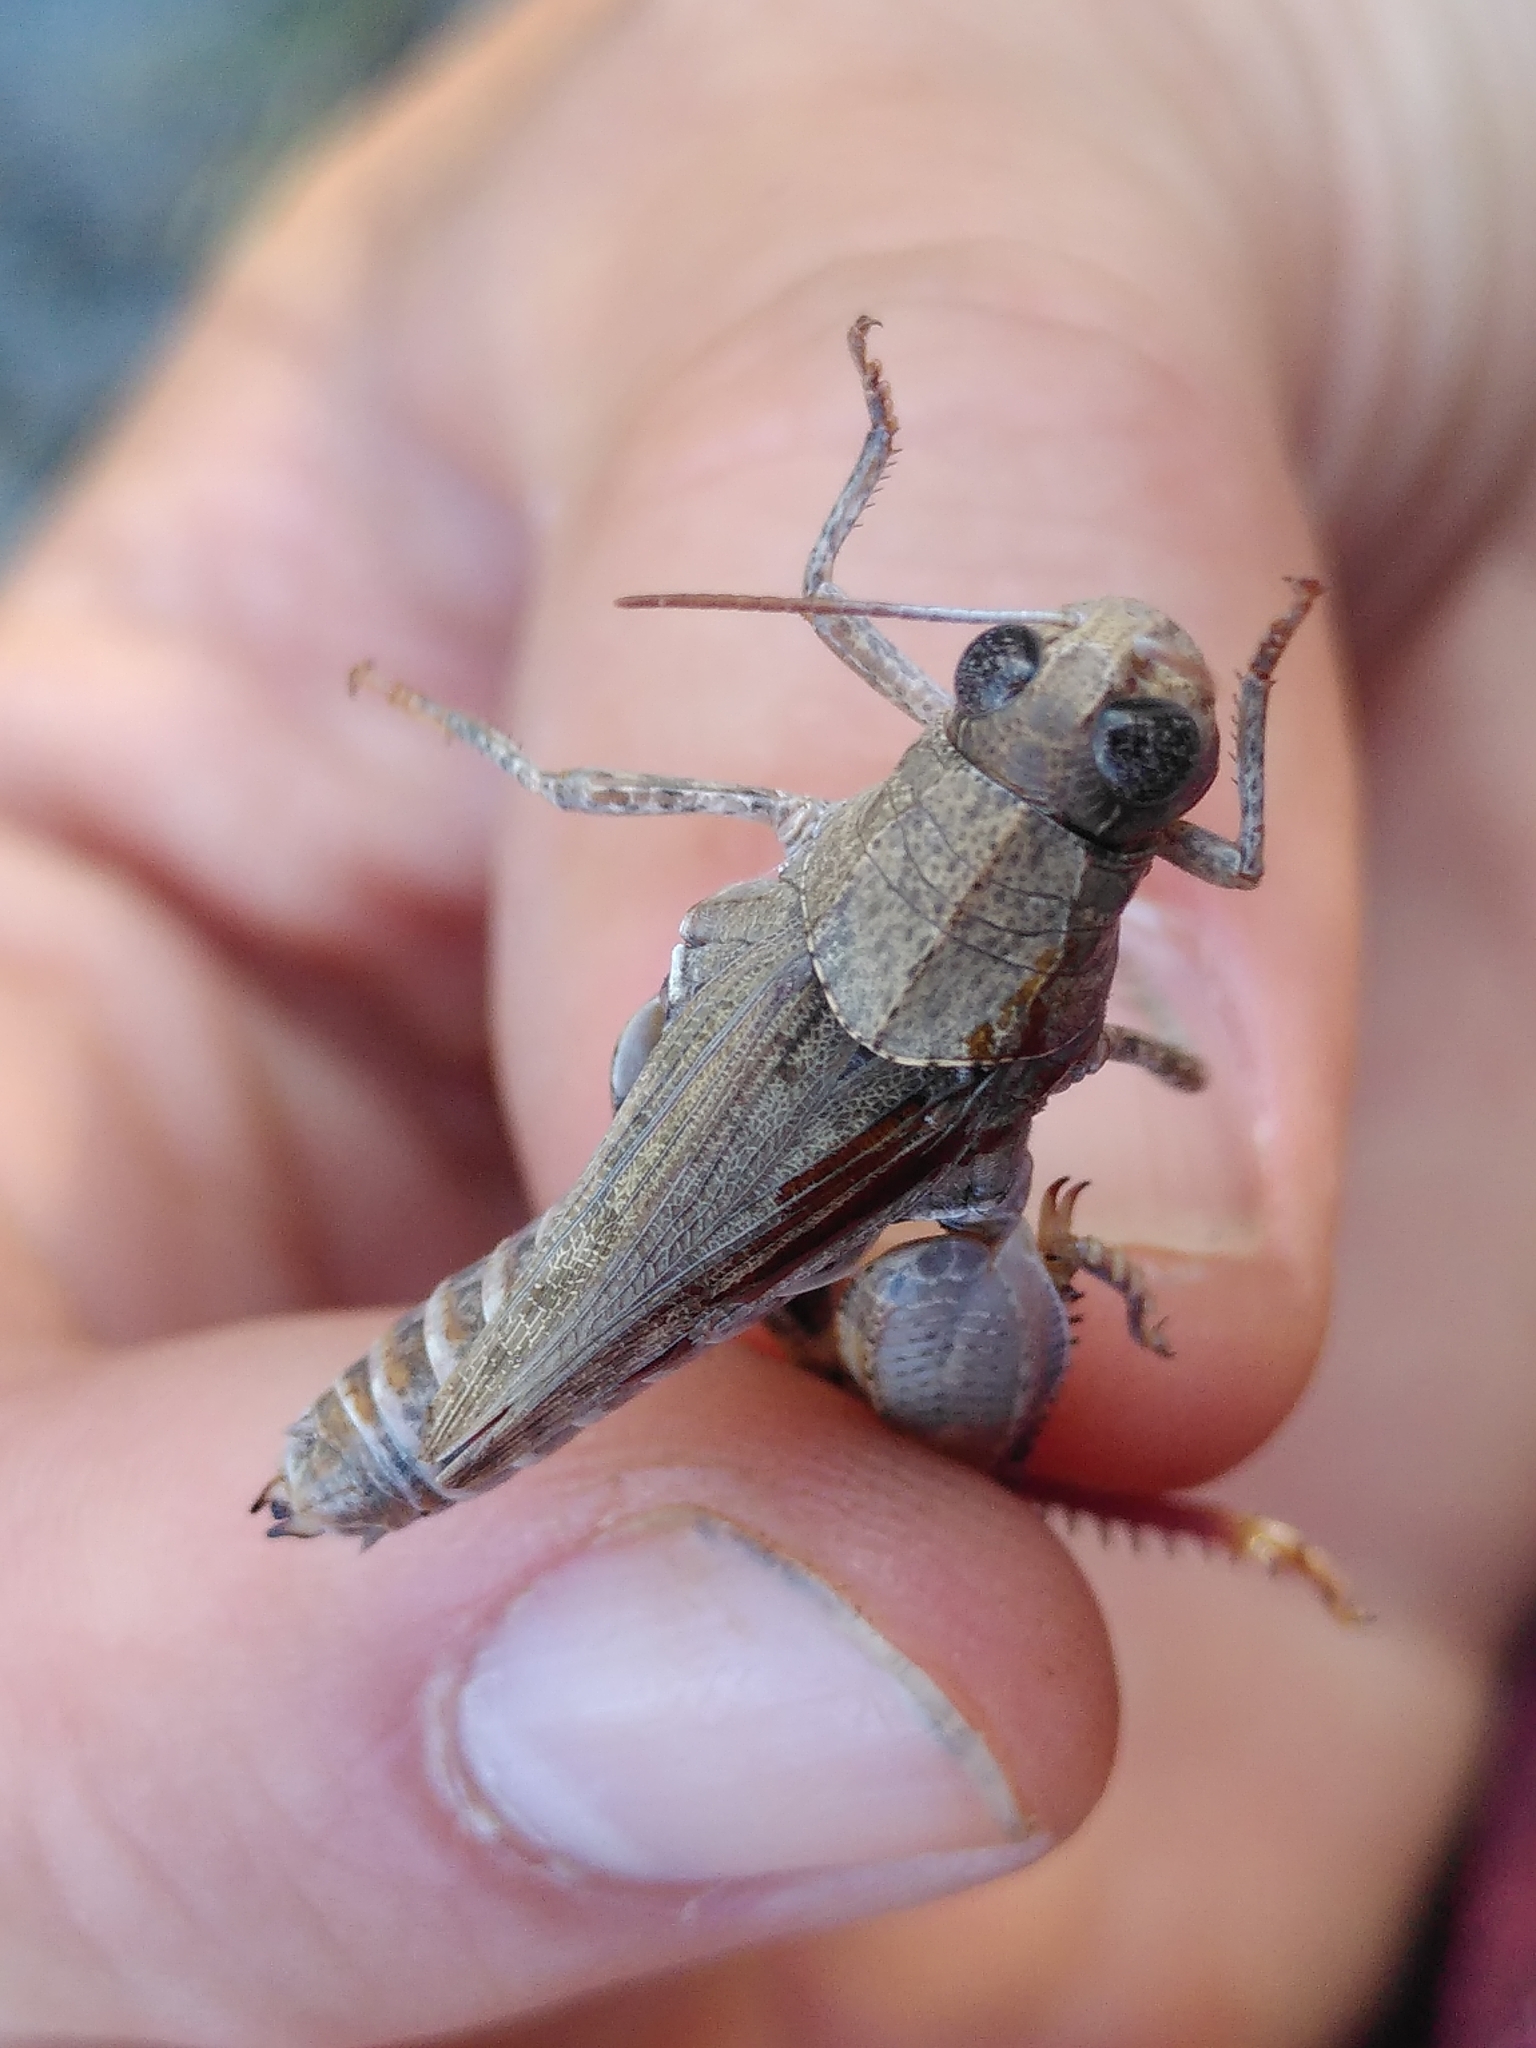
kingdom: Animalia
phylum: Arthropoda
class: Insecta
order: Orthoptera
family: Acrididae
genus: Calliptamus
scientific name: Calliptamus wattenwylianus
